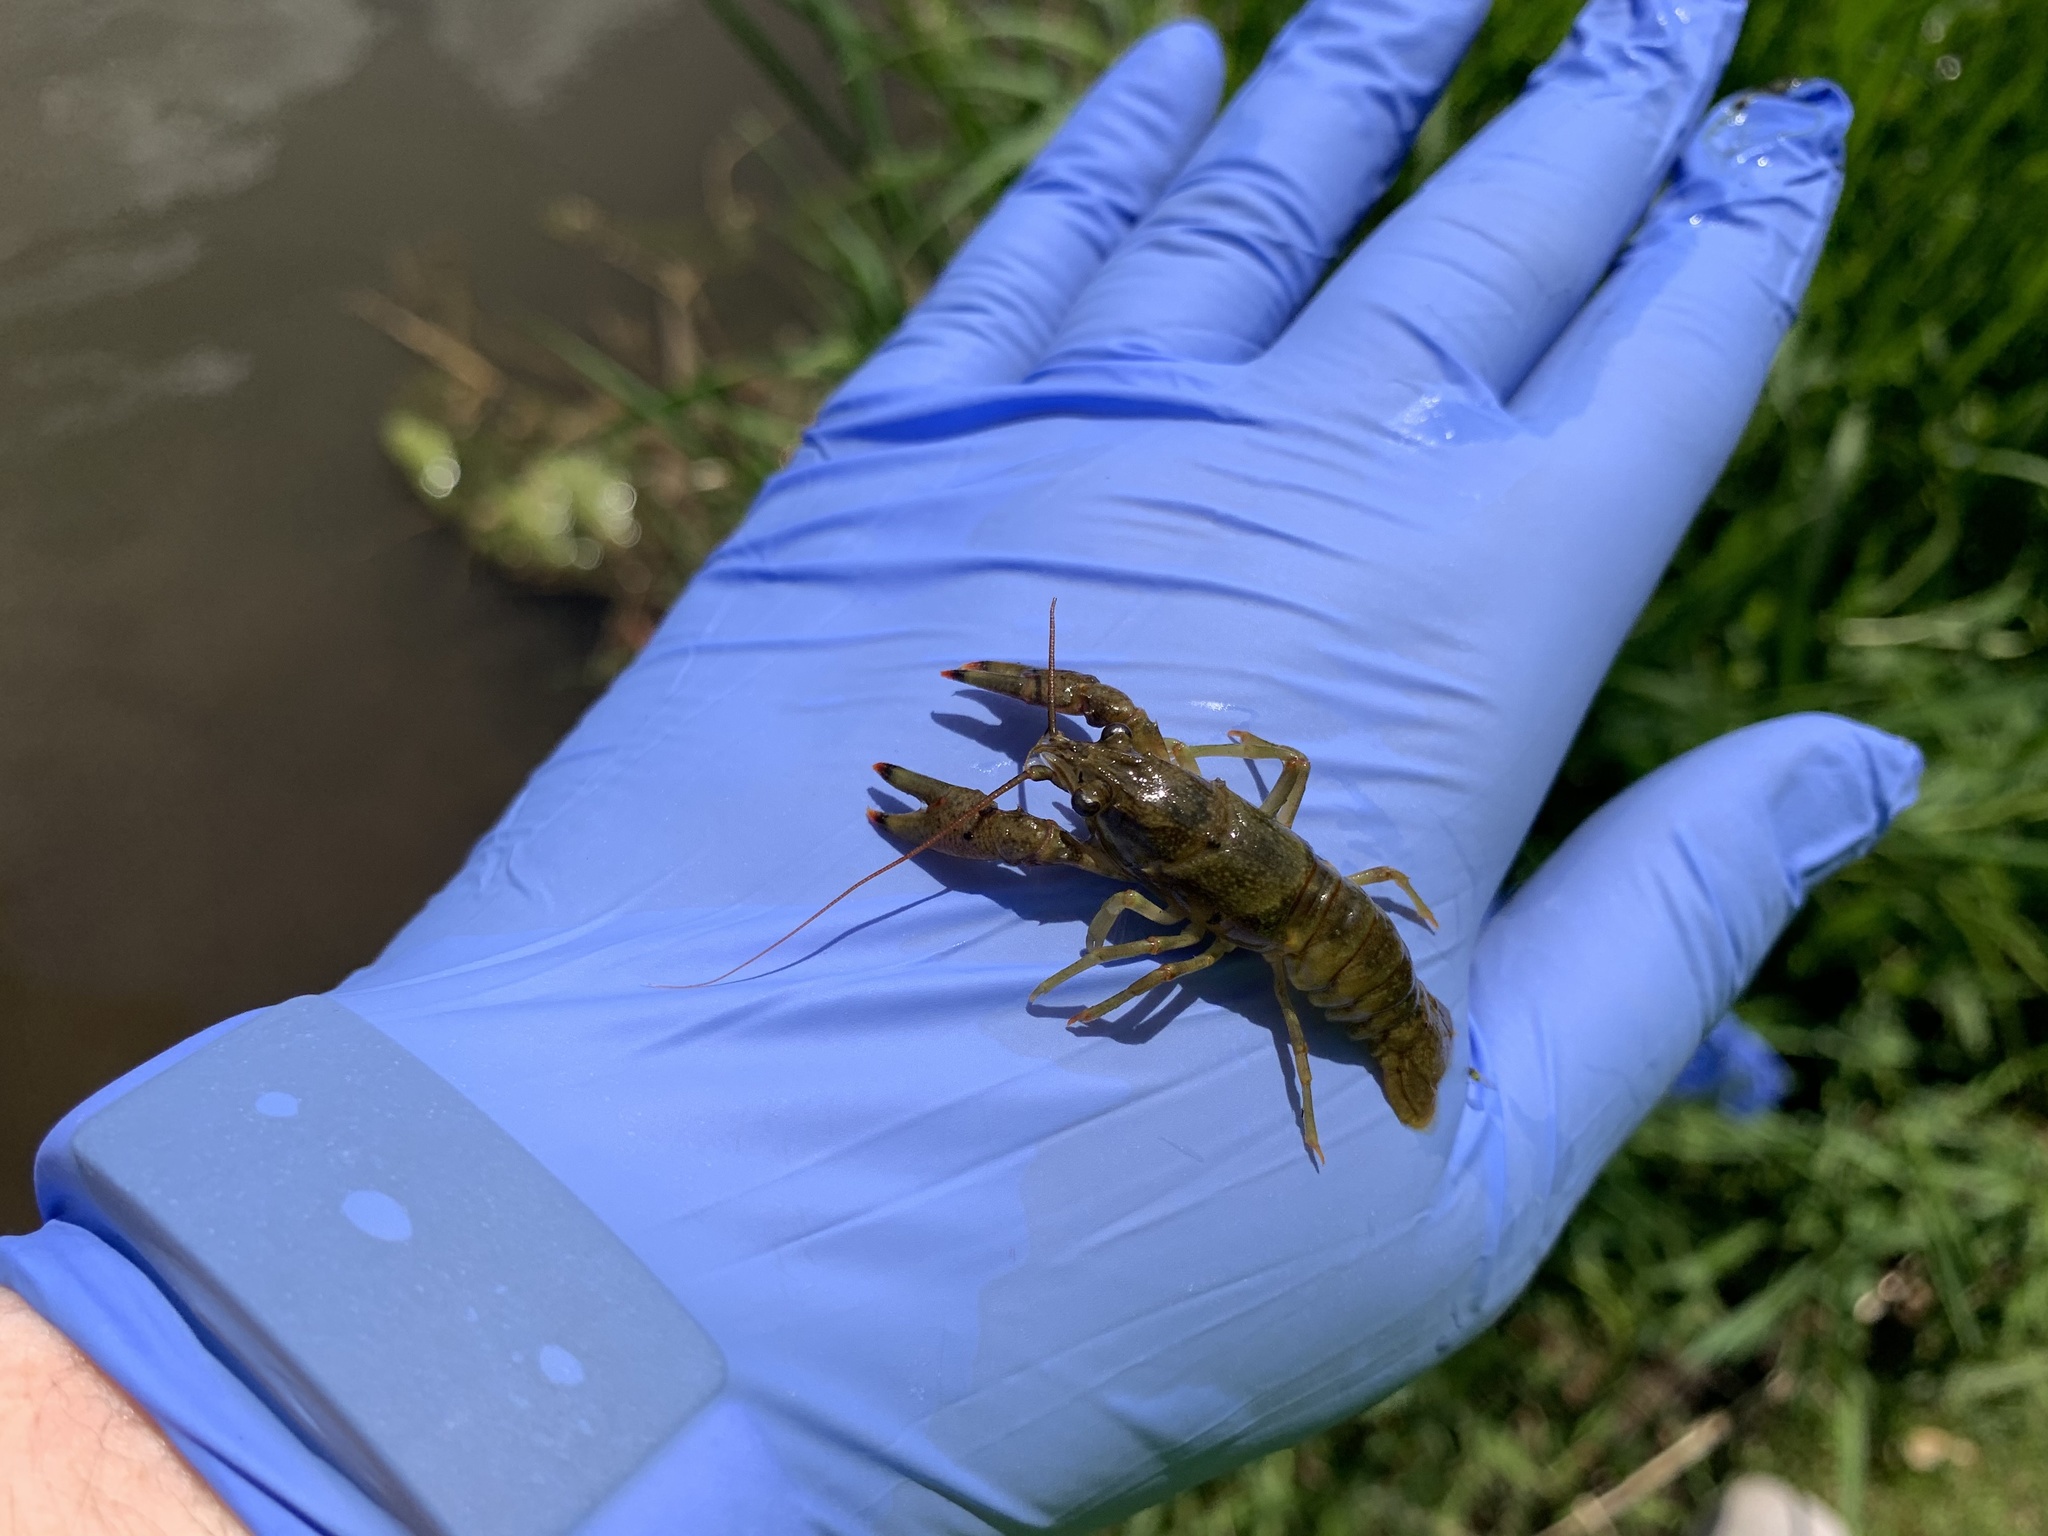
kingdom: Animalia
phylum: Arthropoda
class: Malacostraca
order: Decapoda
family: Cambaridae
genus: Faxonius
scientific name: Faxonius propinquus
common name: Northern clearwater crayfish
